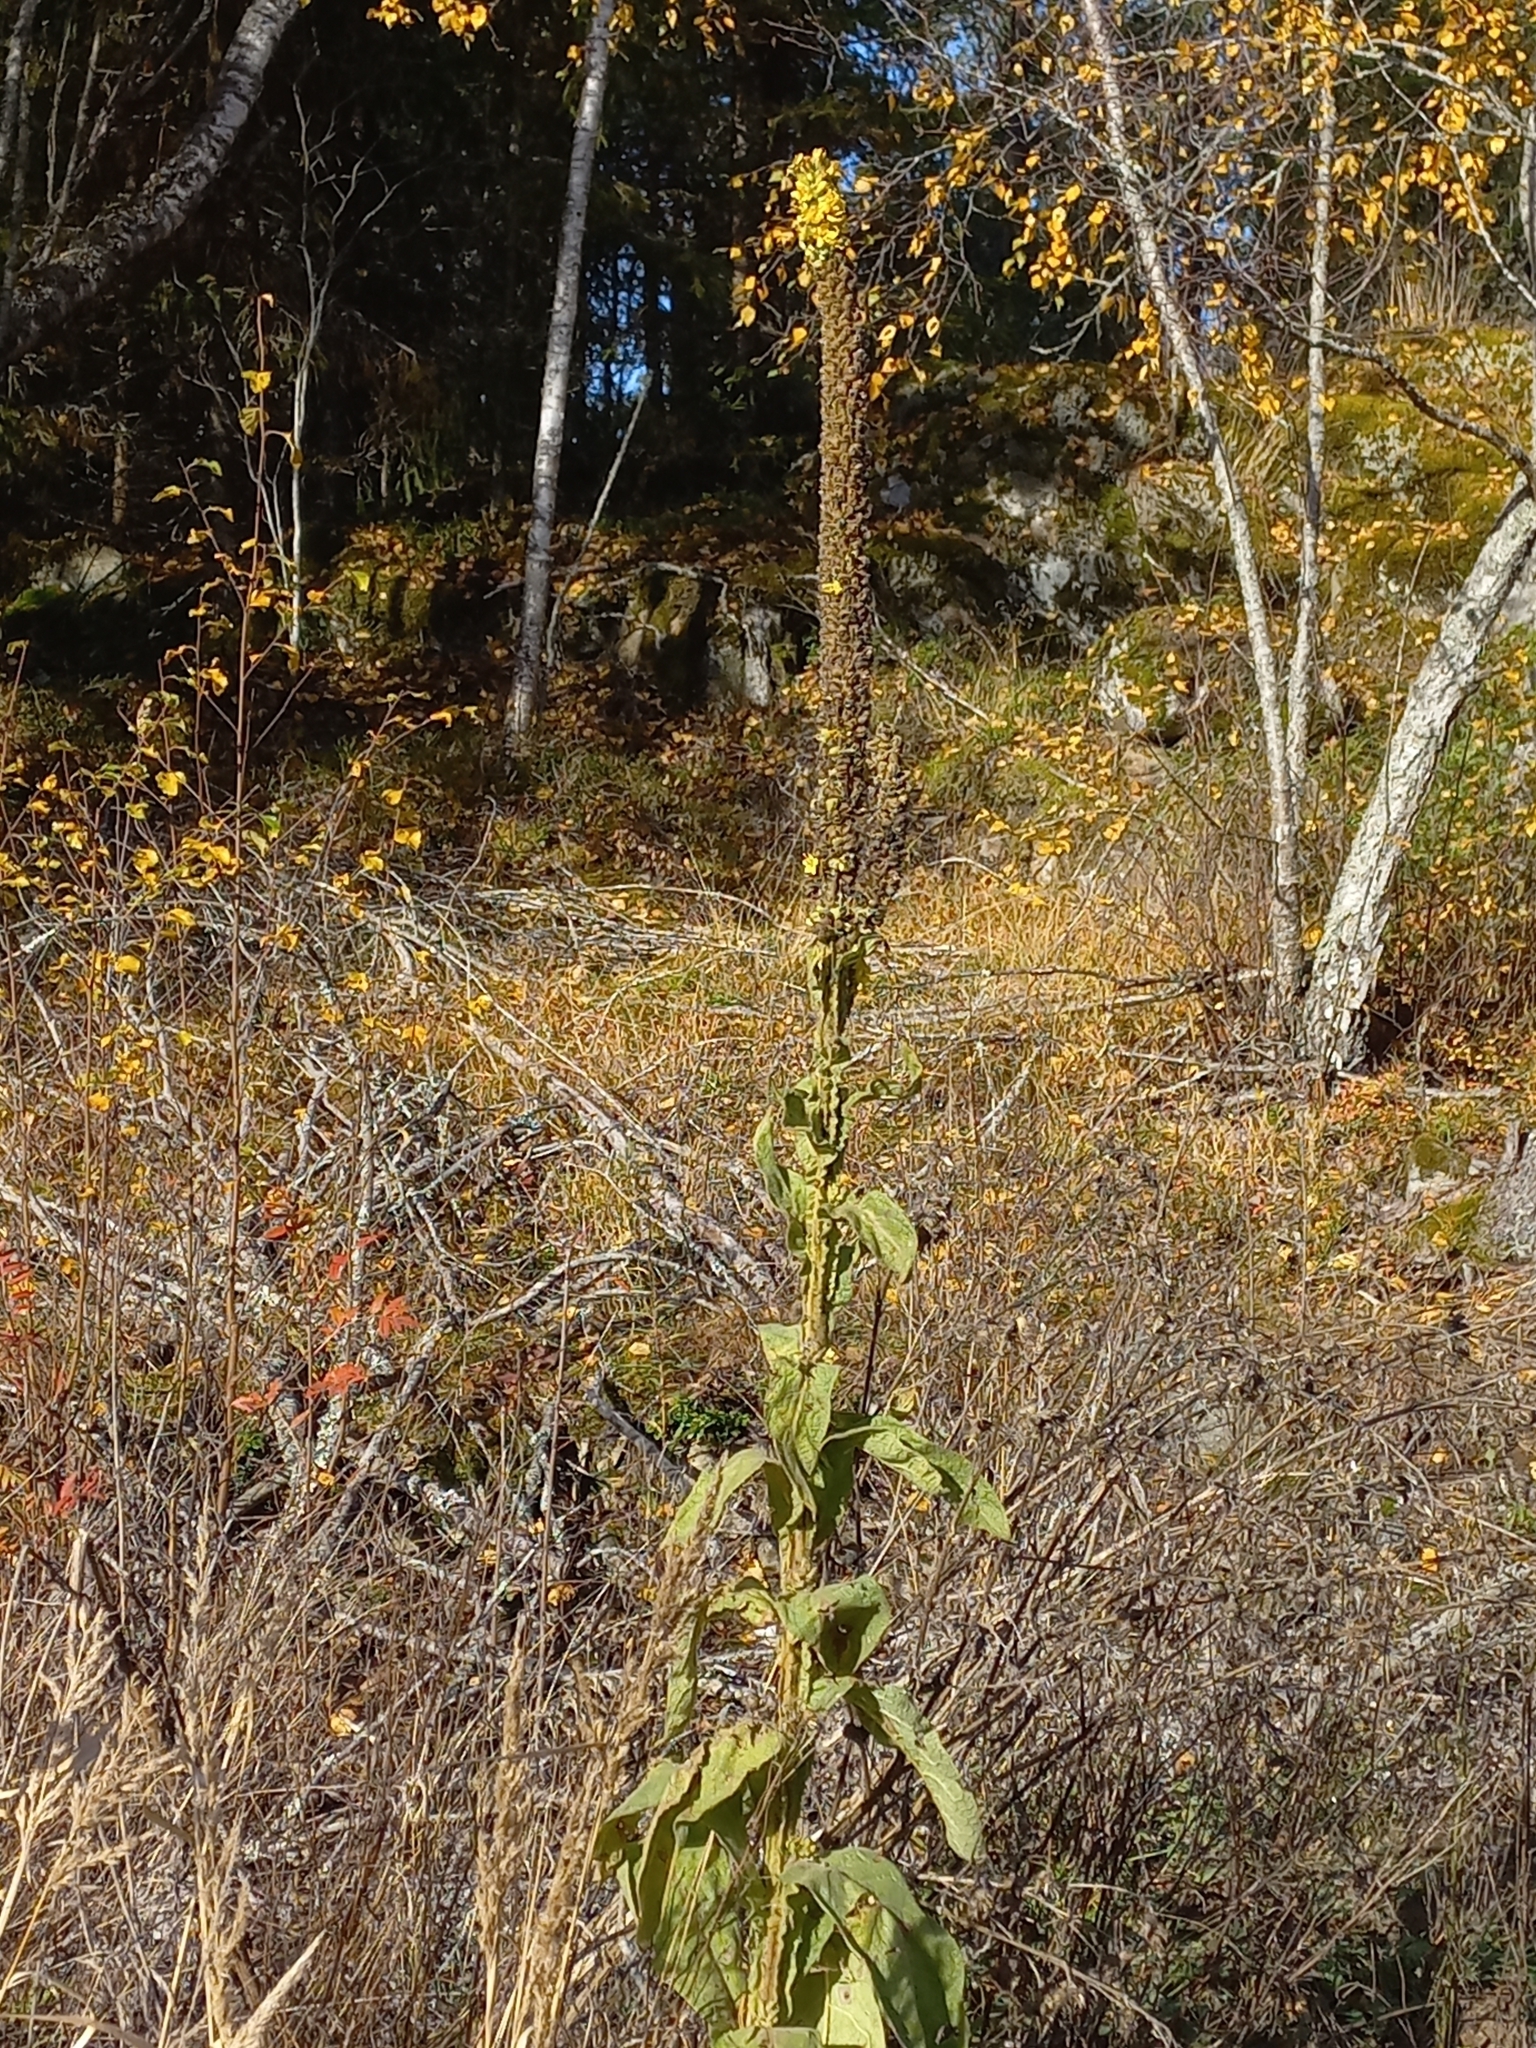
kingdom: Plantae
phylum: Tracheophyta
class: Magnoliopsida
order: Lamiales
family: Scrophulariaceae
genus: Verbascum
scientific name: Verbascum thapsus
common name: Common mullein
